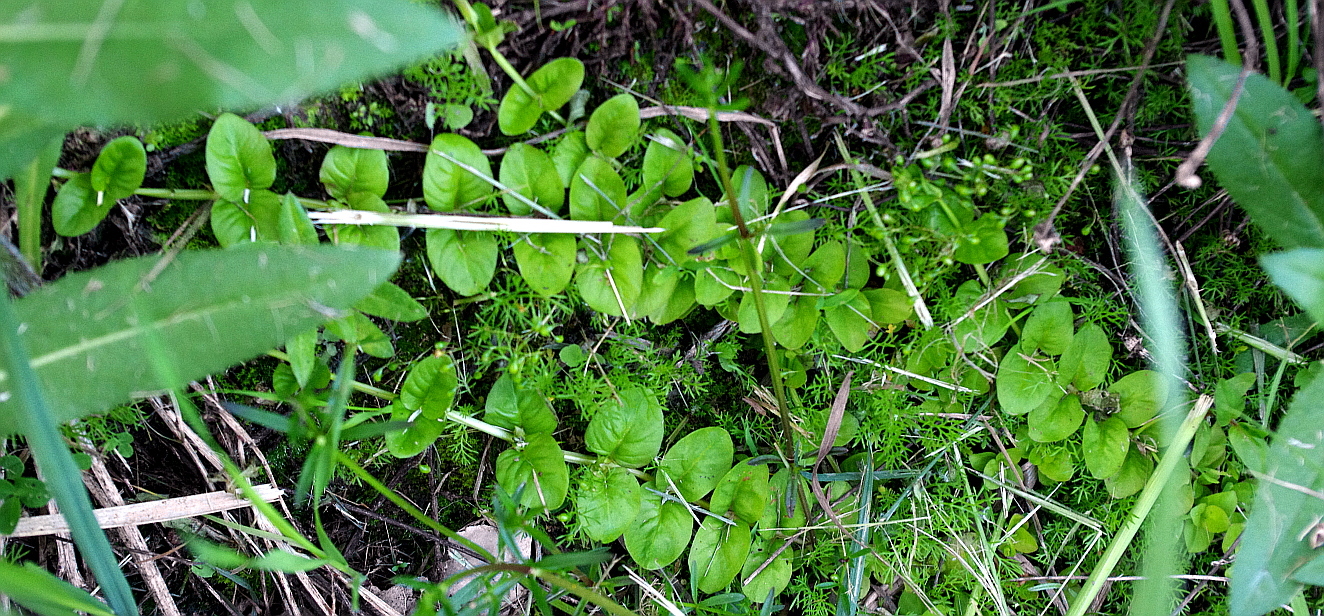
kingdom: Plantae
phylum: Tracheophyta
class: Magnoliopsida
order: Ericales
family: Primulaceae
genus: Lysimachia
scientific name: Lysimachia nummularia
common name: Moneywort
